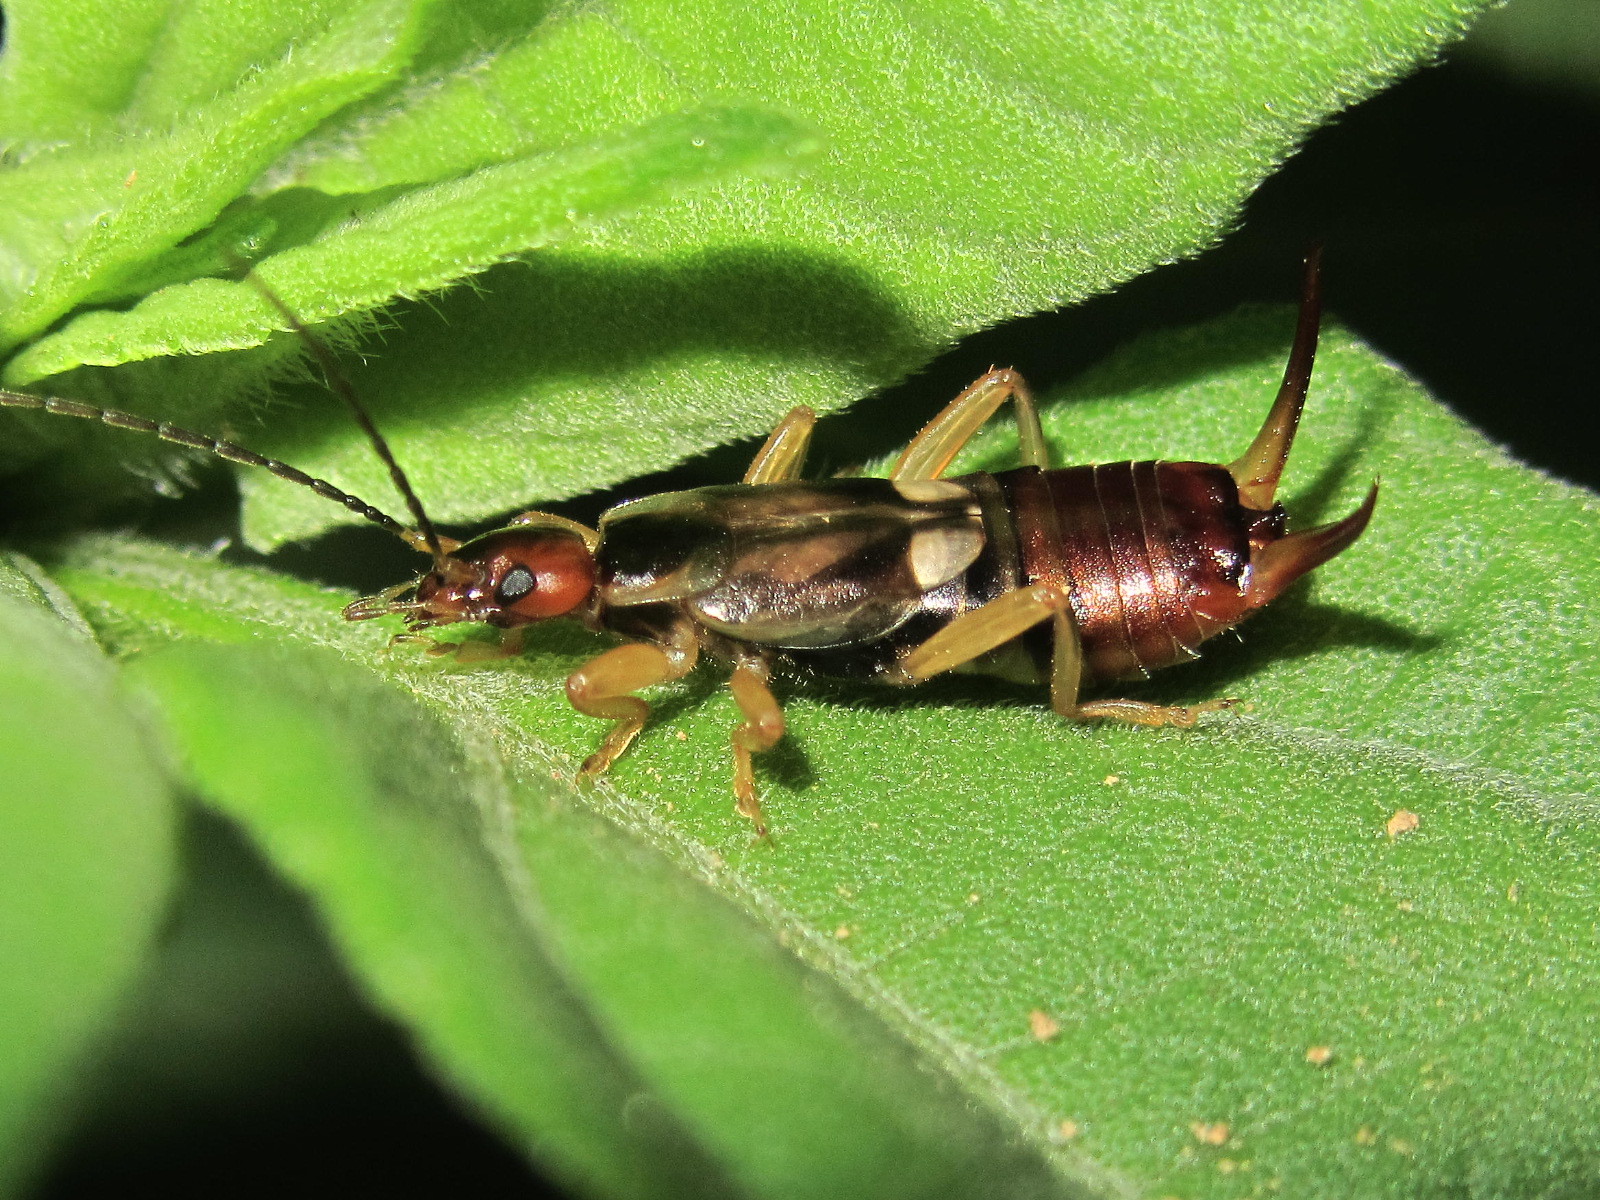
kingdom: Animalia
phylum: Arthropoda
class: Insecta
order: Dermaptera
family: Forficulidae
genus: Forficula
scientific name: Forficula
